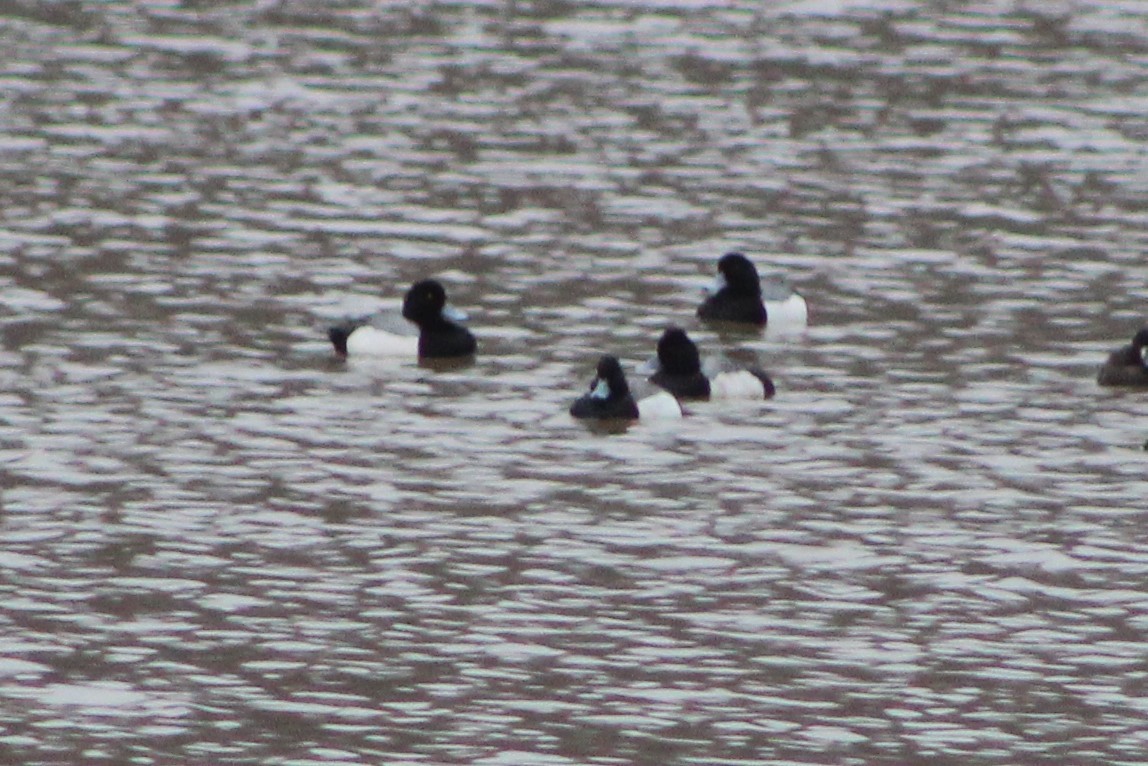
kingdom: Animalia
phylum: Chordata
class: Aves
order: Anseriformes
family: Anatidae
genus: Aythya
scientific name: Aythya marila
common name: Greater scaup
